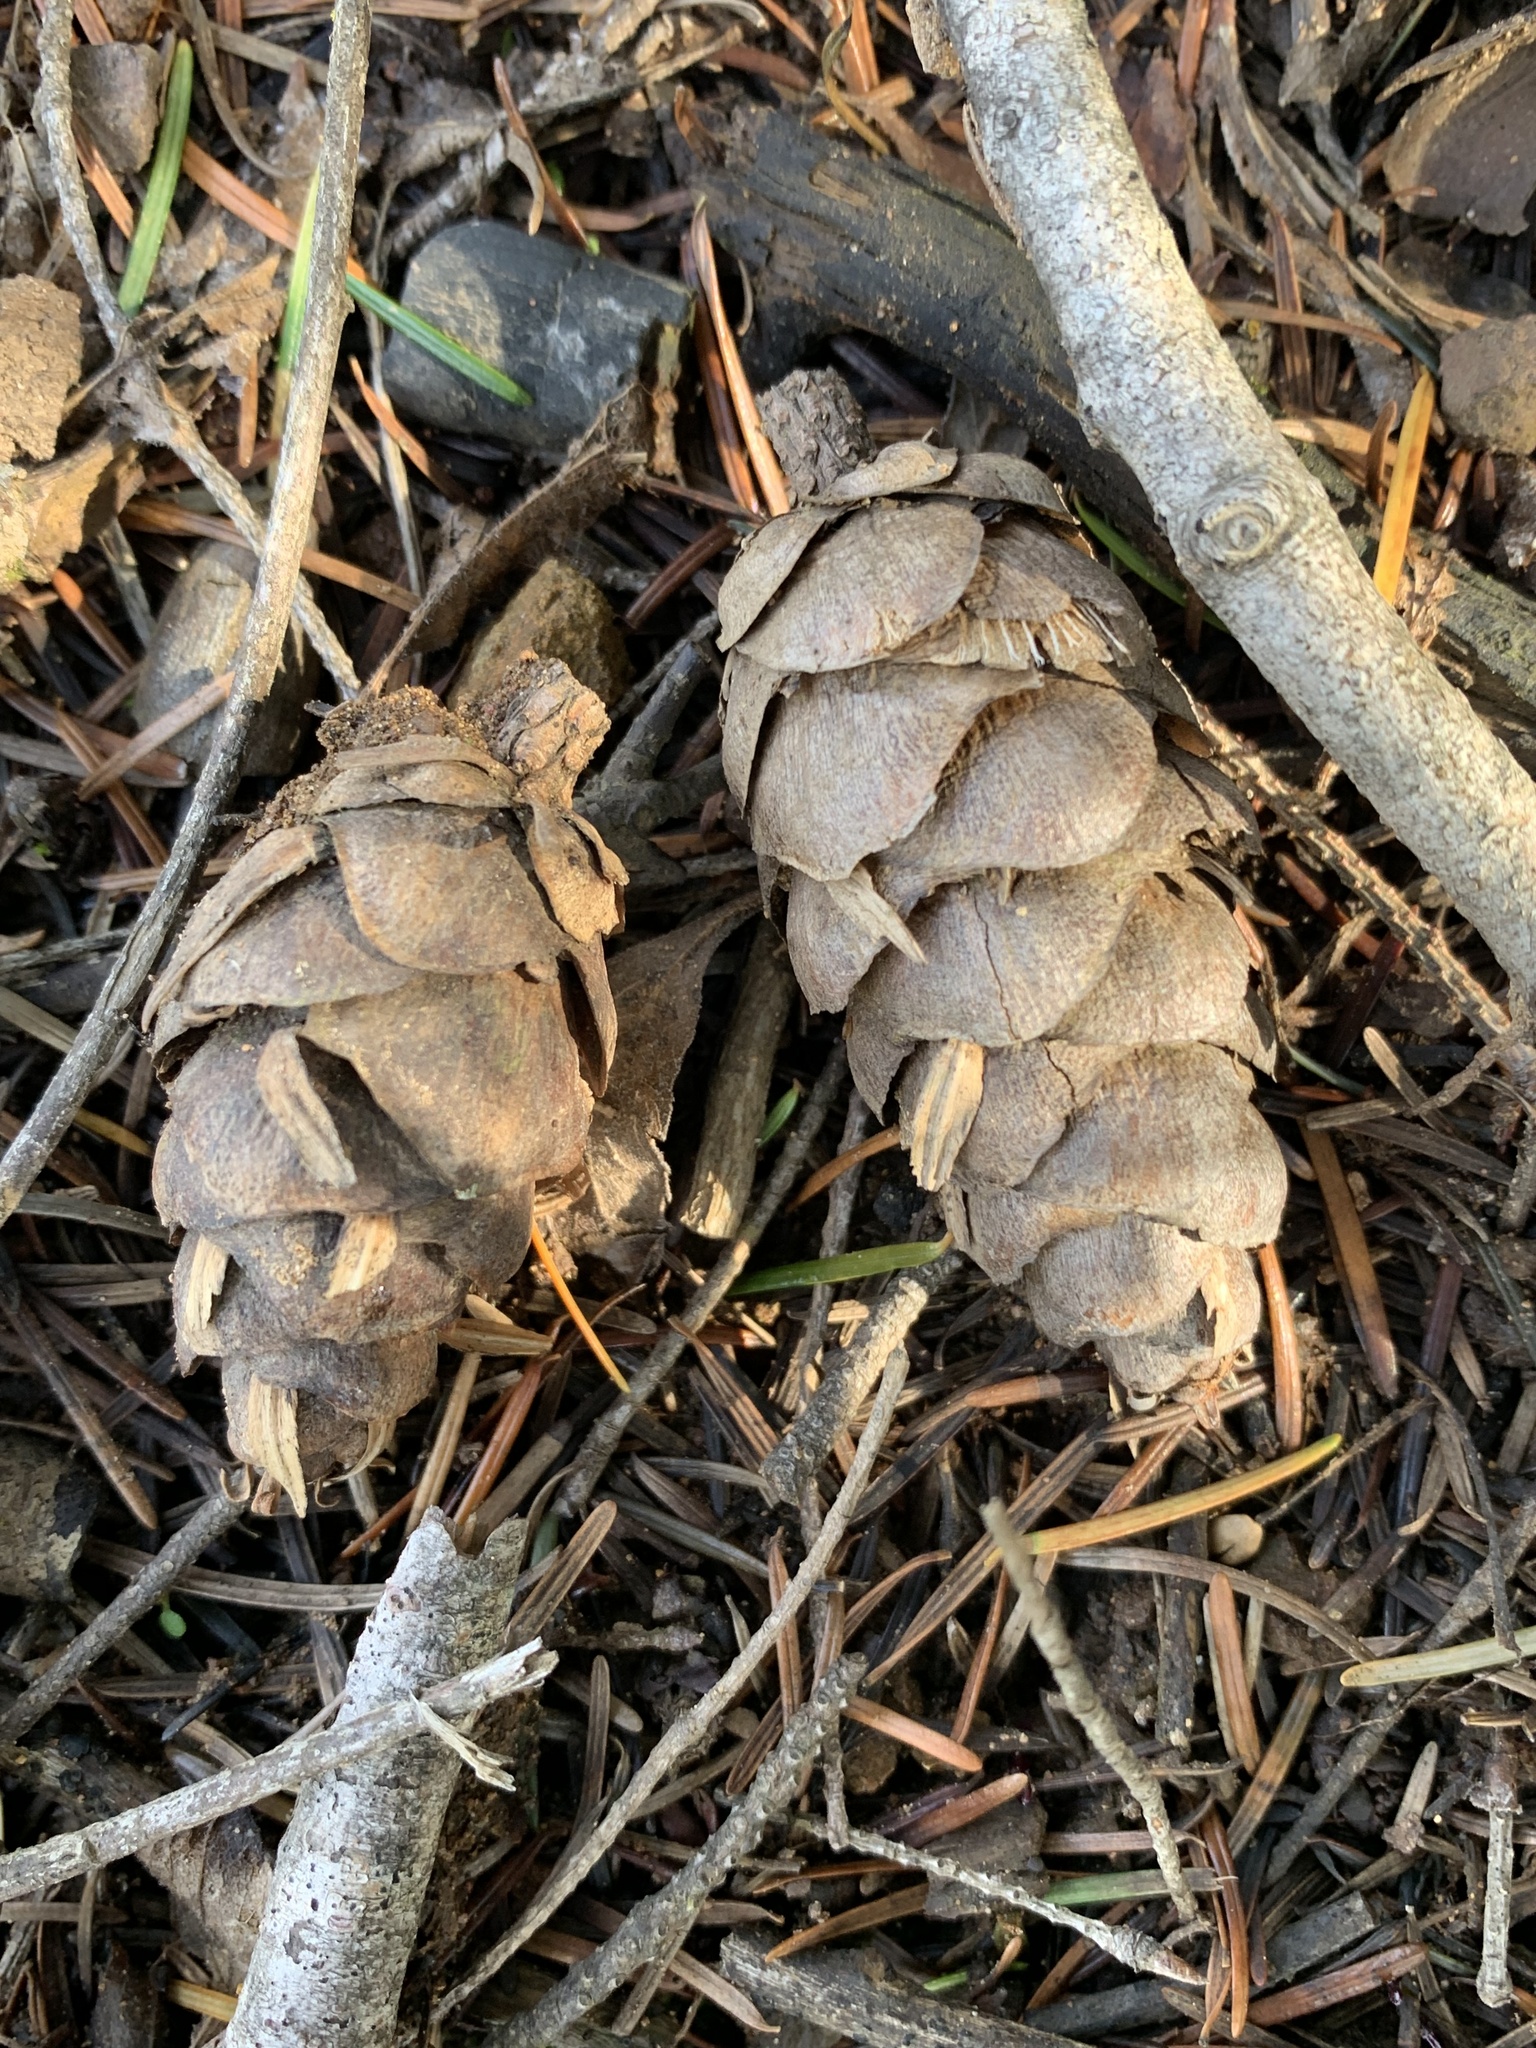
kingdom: Plantae
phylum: Tracheophyta
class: Pinopsida
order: Pinales
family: Pinaceae
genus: Pseudotsuga
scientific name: Pseudotsuga menziesii
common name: Douglas fir
